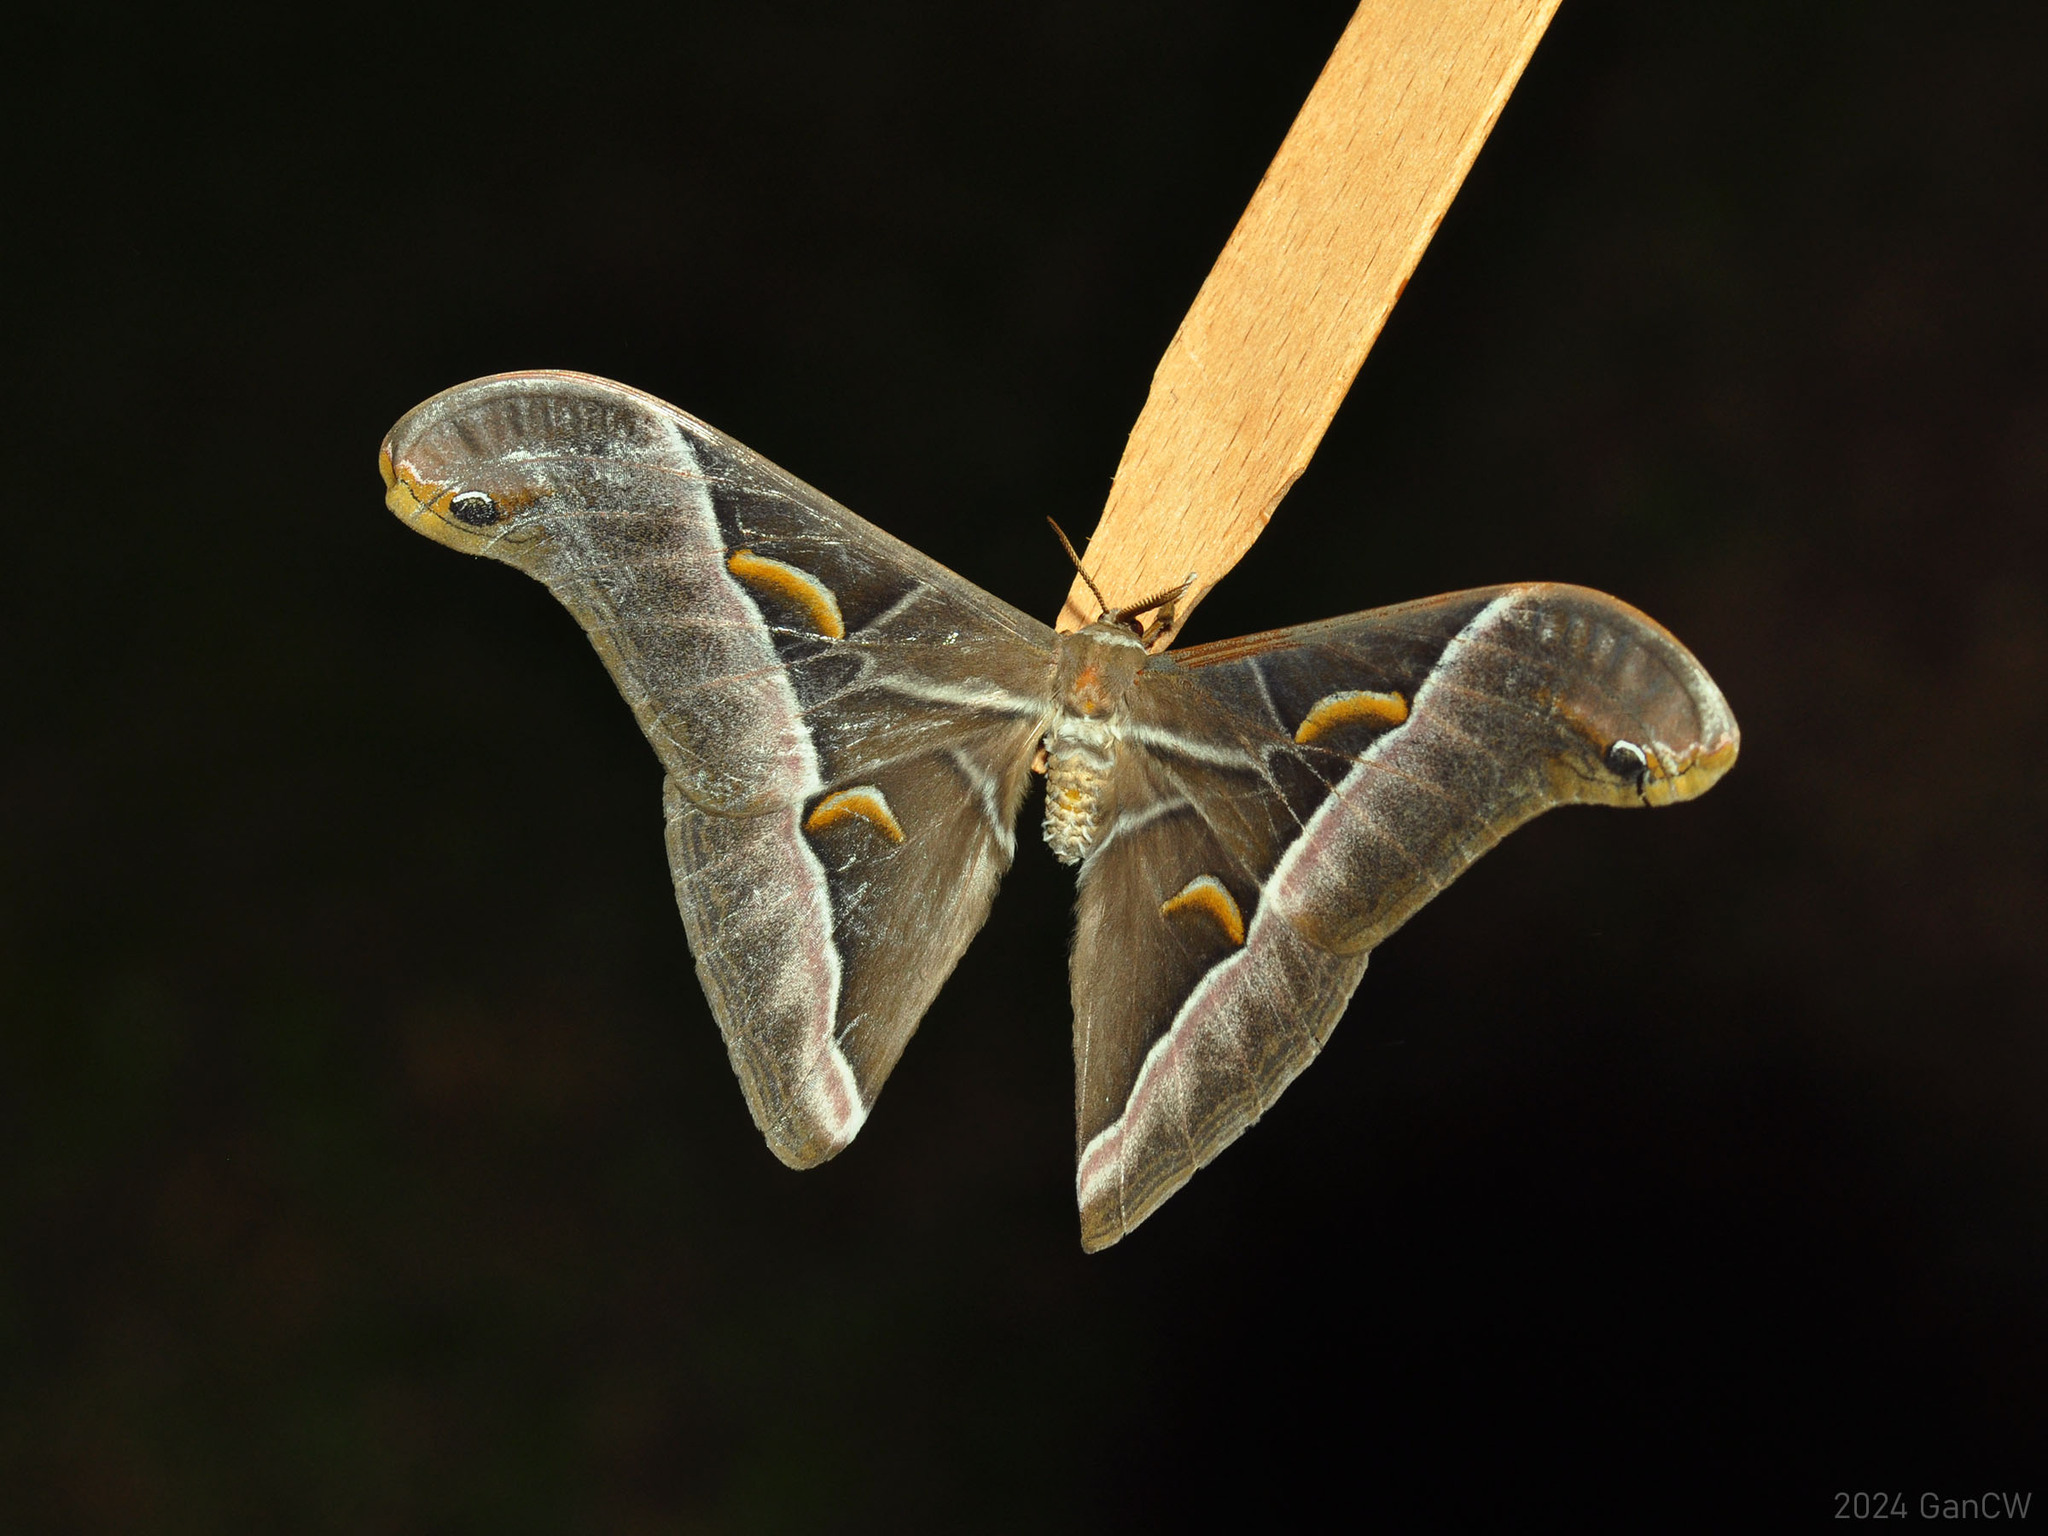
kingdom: Animalia
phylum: Arthropoda
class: Insecta
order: Lepidoptera
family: Saturniidae
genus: Samia
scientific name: Samia tetrica
